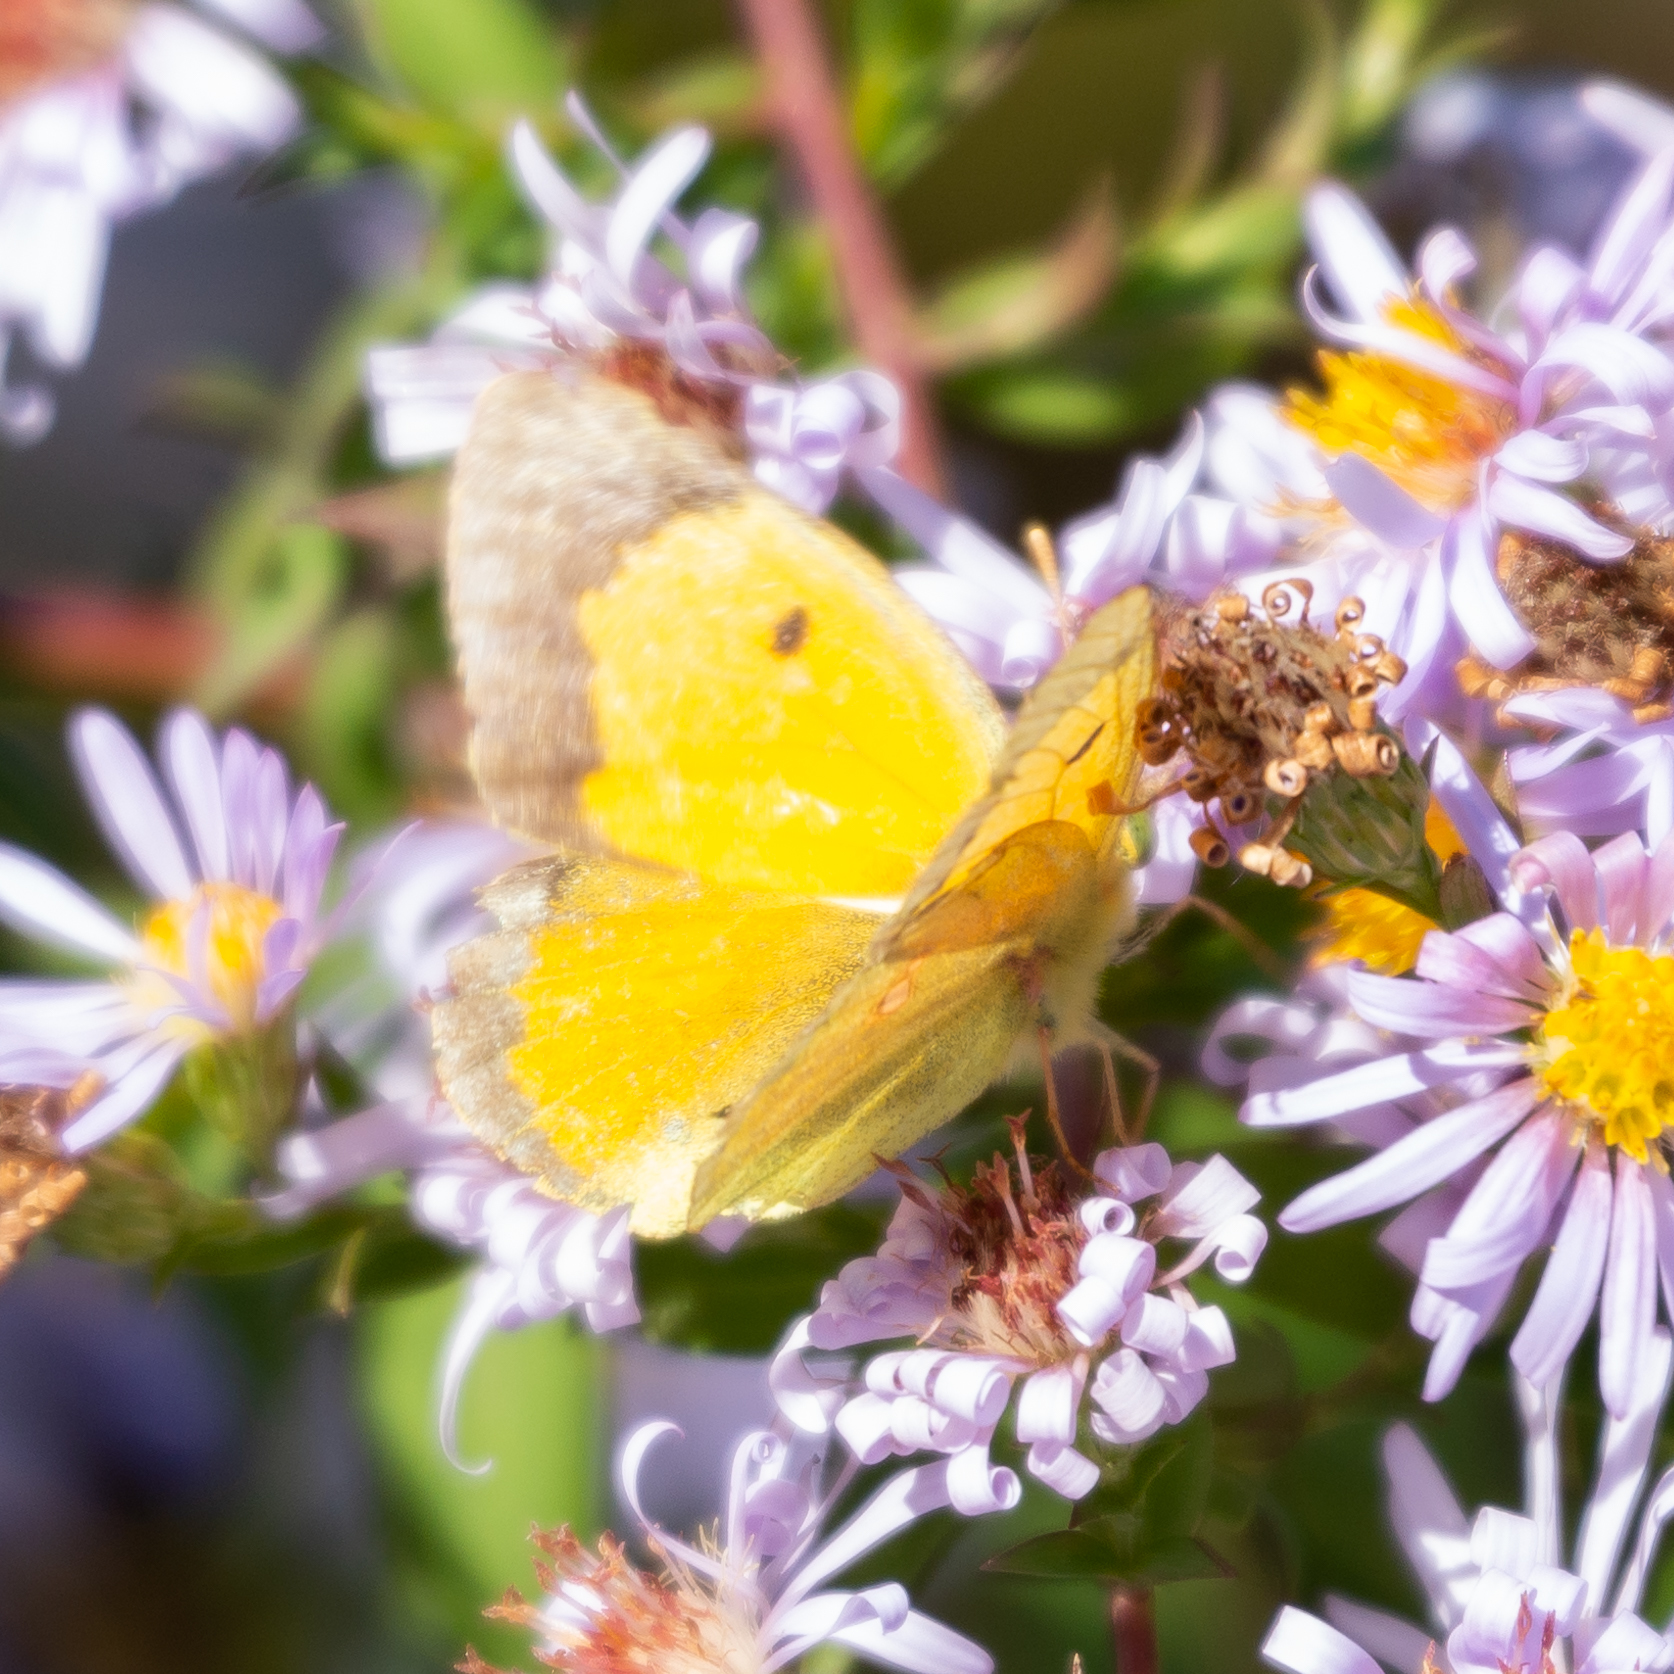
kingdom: Animalia
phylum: Arthropoda
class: Insecta
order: Lepidoptera
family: Pieridae
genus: Colias
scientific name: Colias croceus
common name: Clouded yellow
